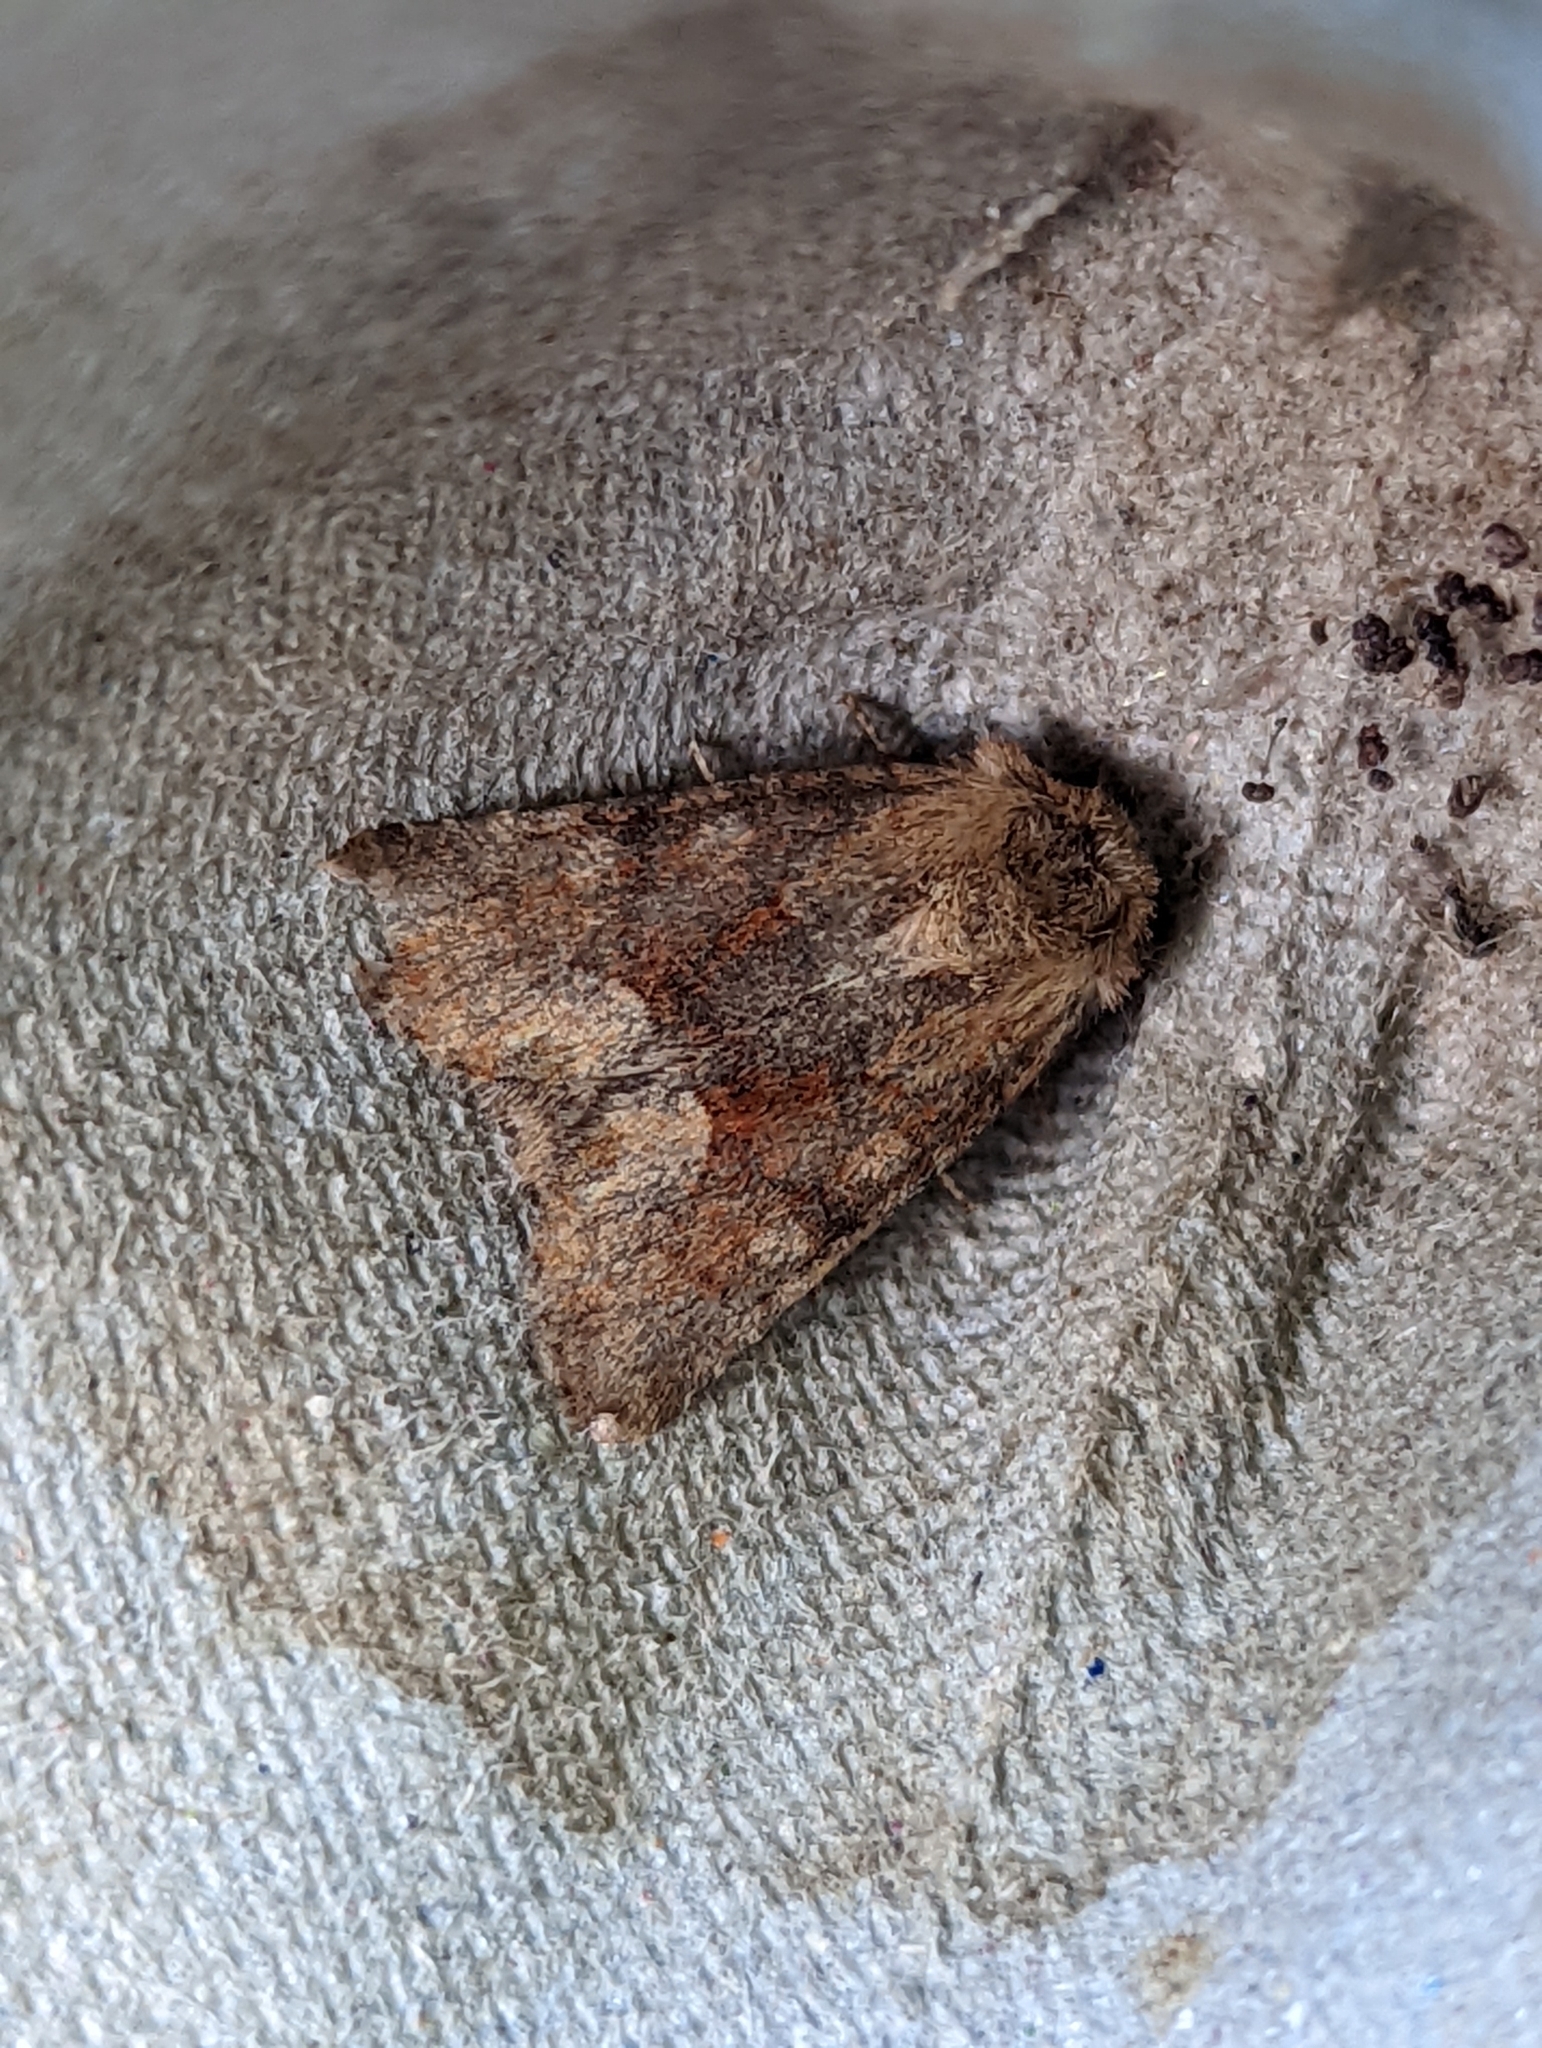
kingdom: Animalia
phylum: Arthropoda
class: Insecta
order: Lepidoptera
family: Noctuidae
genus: Oligia
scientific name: Oligia fasciuncula
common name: Middle-barred minor
